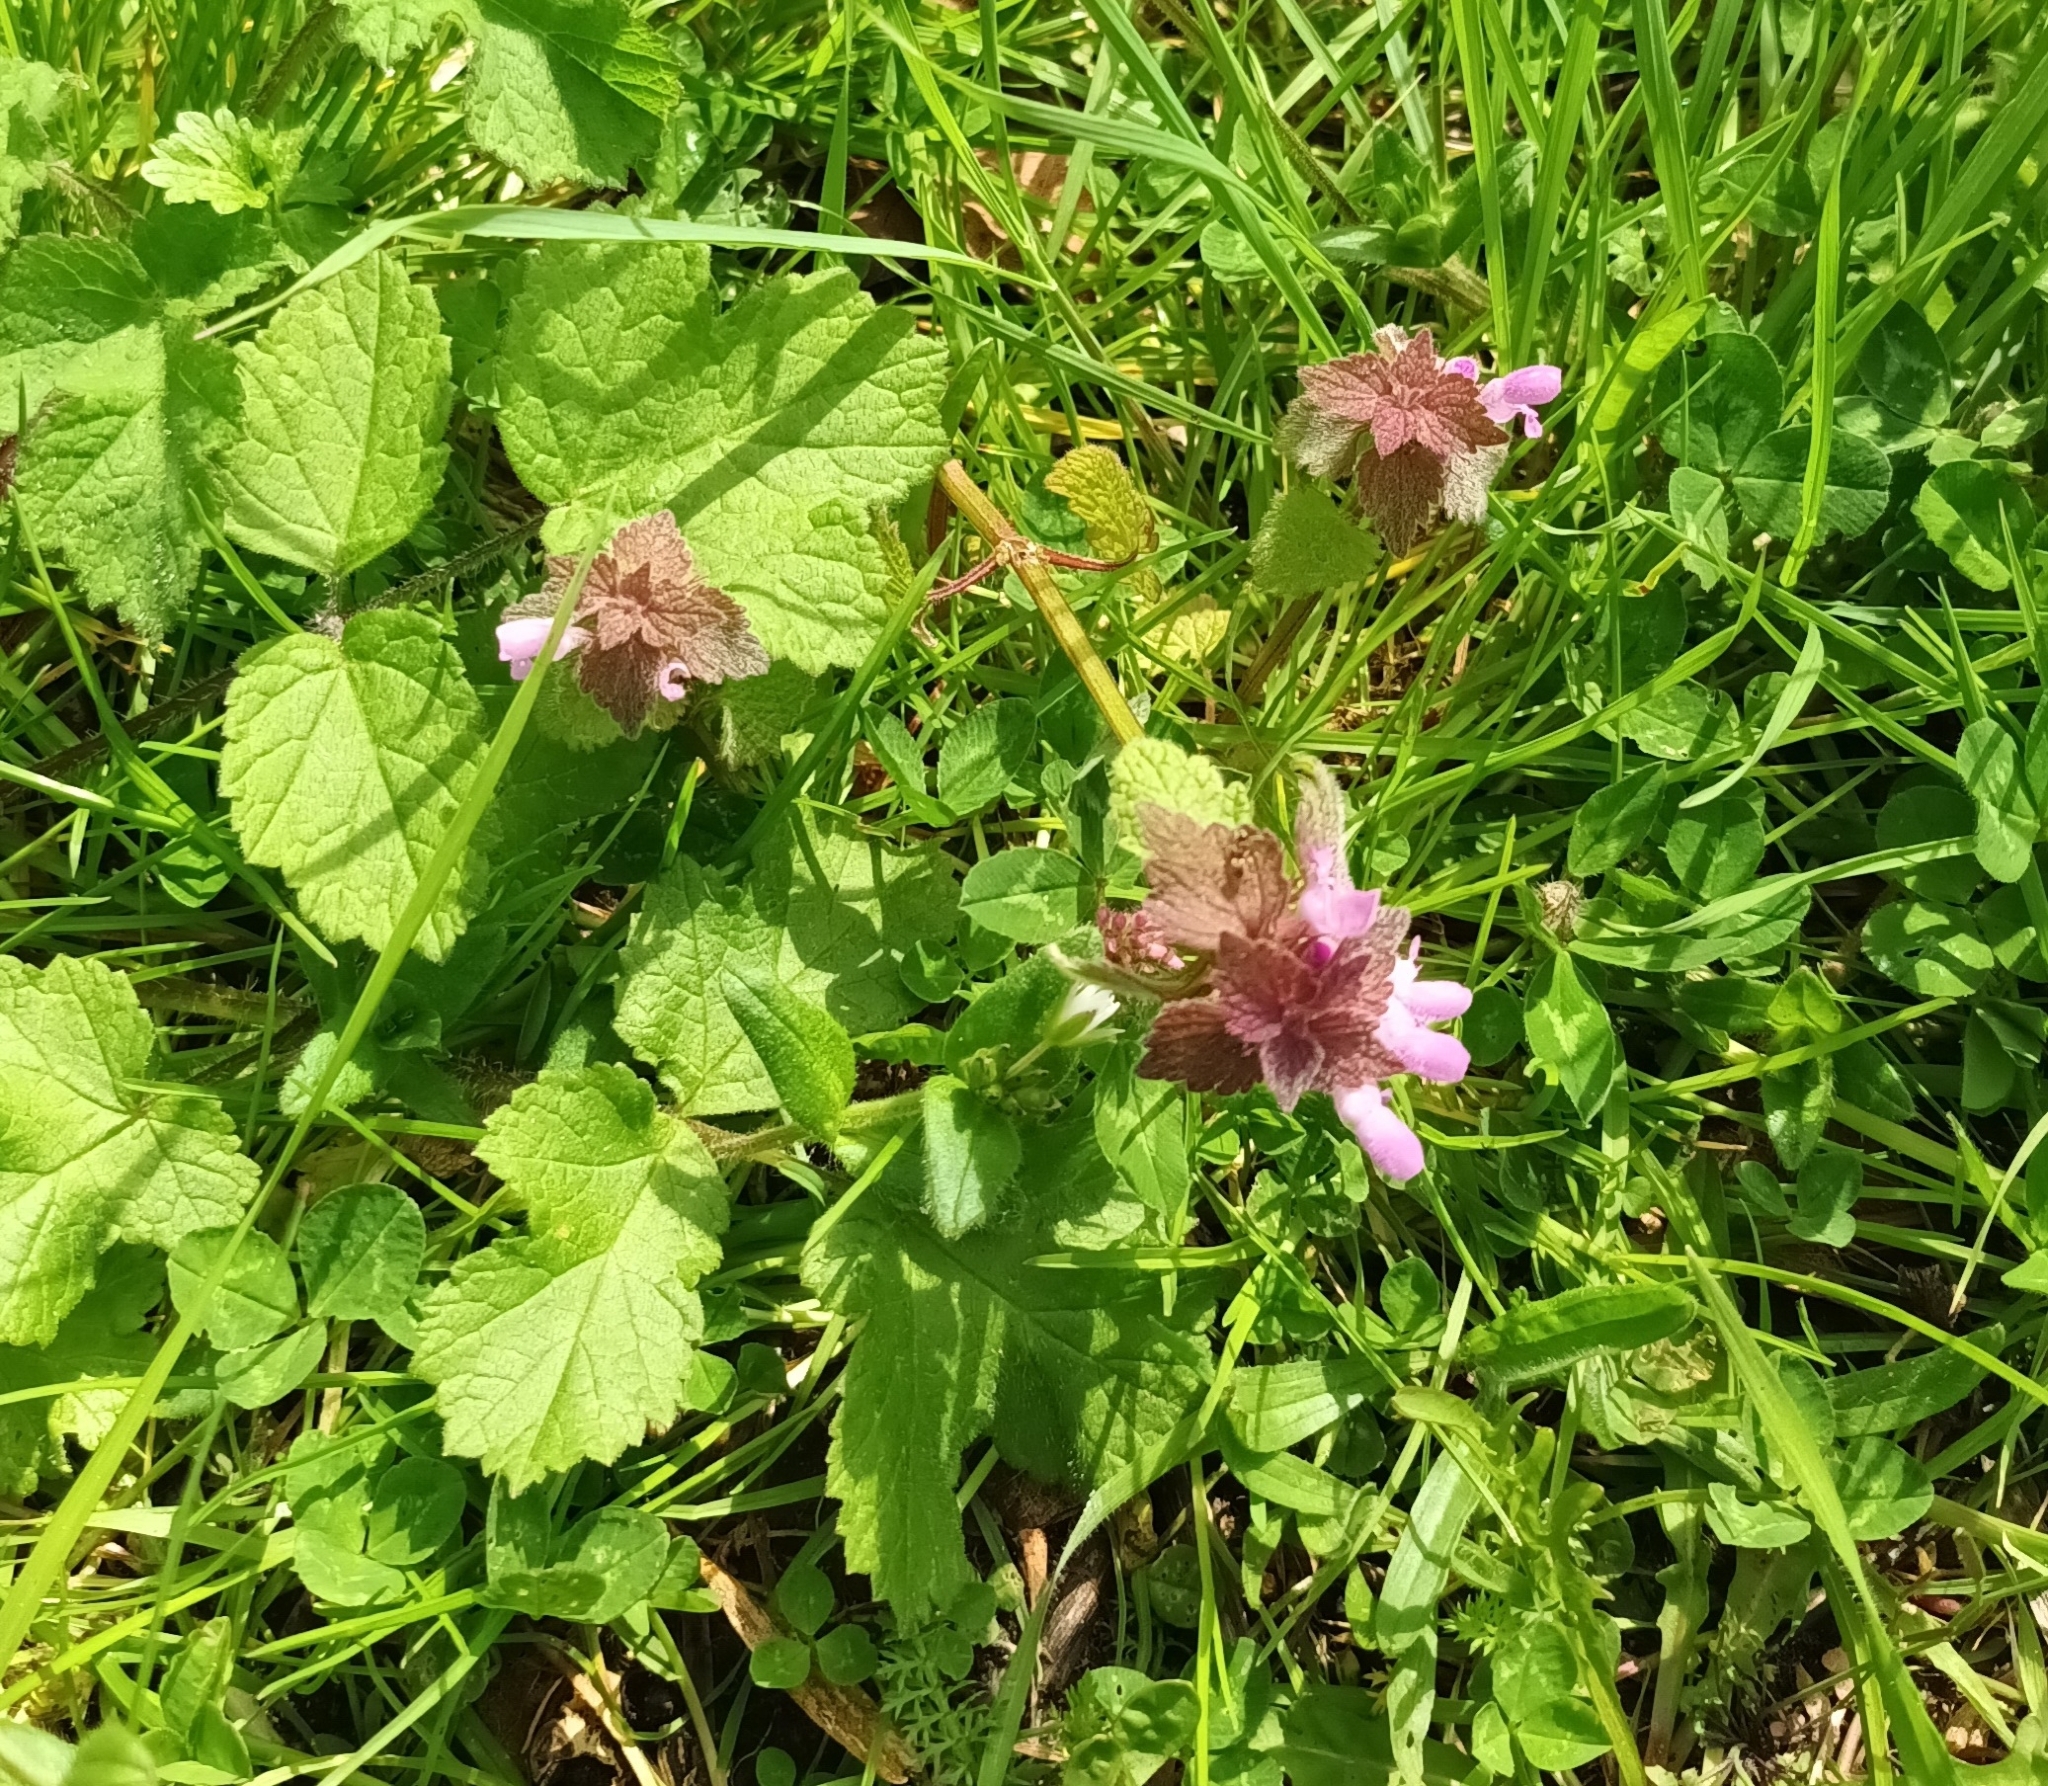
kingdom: Plantae
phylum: Tracheophyta
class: Magnoliopsida
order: Lamiales
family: Lamiaceae
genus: Lamium
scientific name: Lamium purpureum
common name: Red dead-nettle
